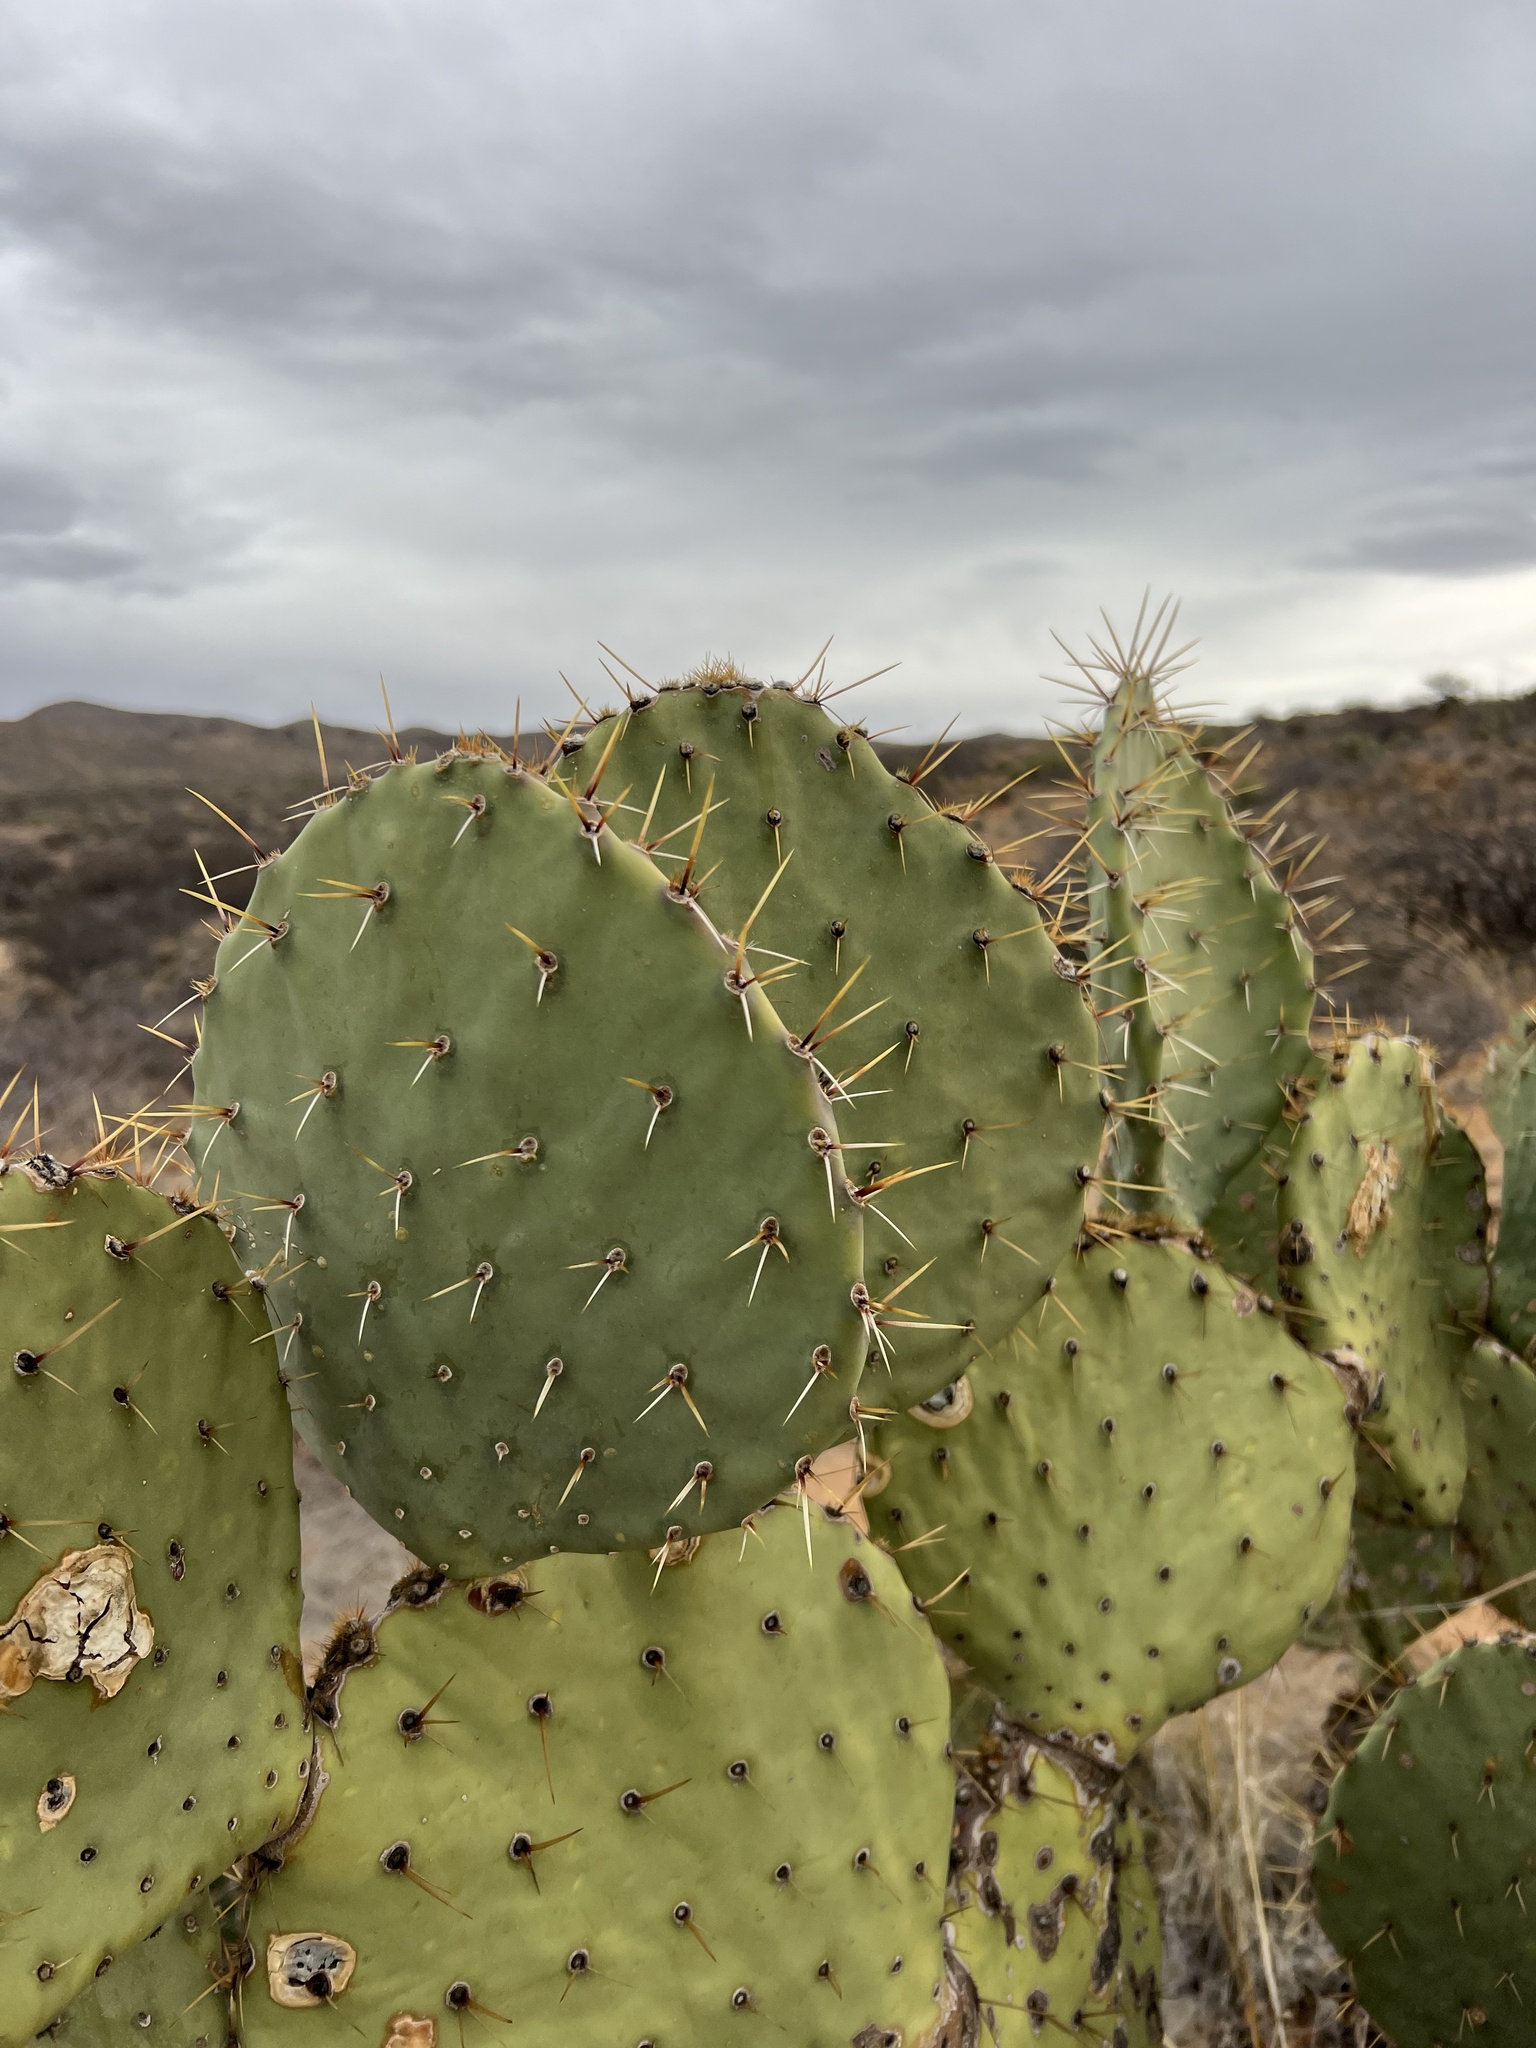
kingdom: Plantae
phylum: Tracheophyta
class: Magnoliopsida
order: Caryophyllales
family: Cactaceae
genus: Opuntia
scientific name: Opuntia engelmannii
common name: Cactus-apple
